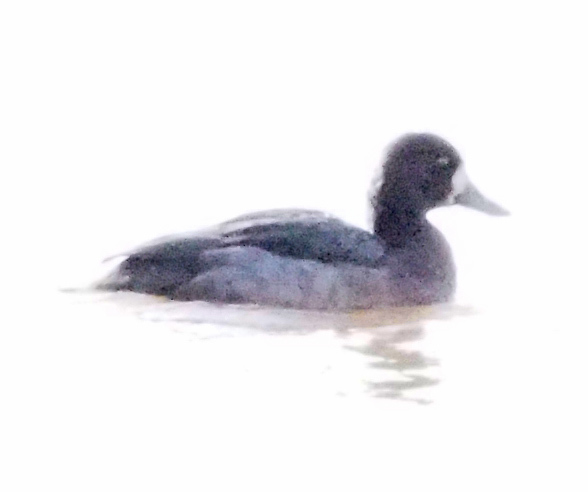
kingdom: Animalia
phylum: Chordata
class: Aves
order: Anseriformes
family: Anatidae
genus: Aythya
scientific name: Aythya affinis
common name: Lesser scaup
